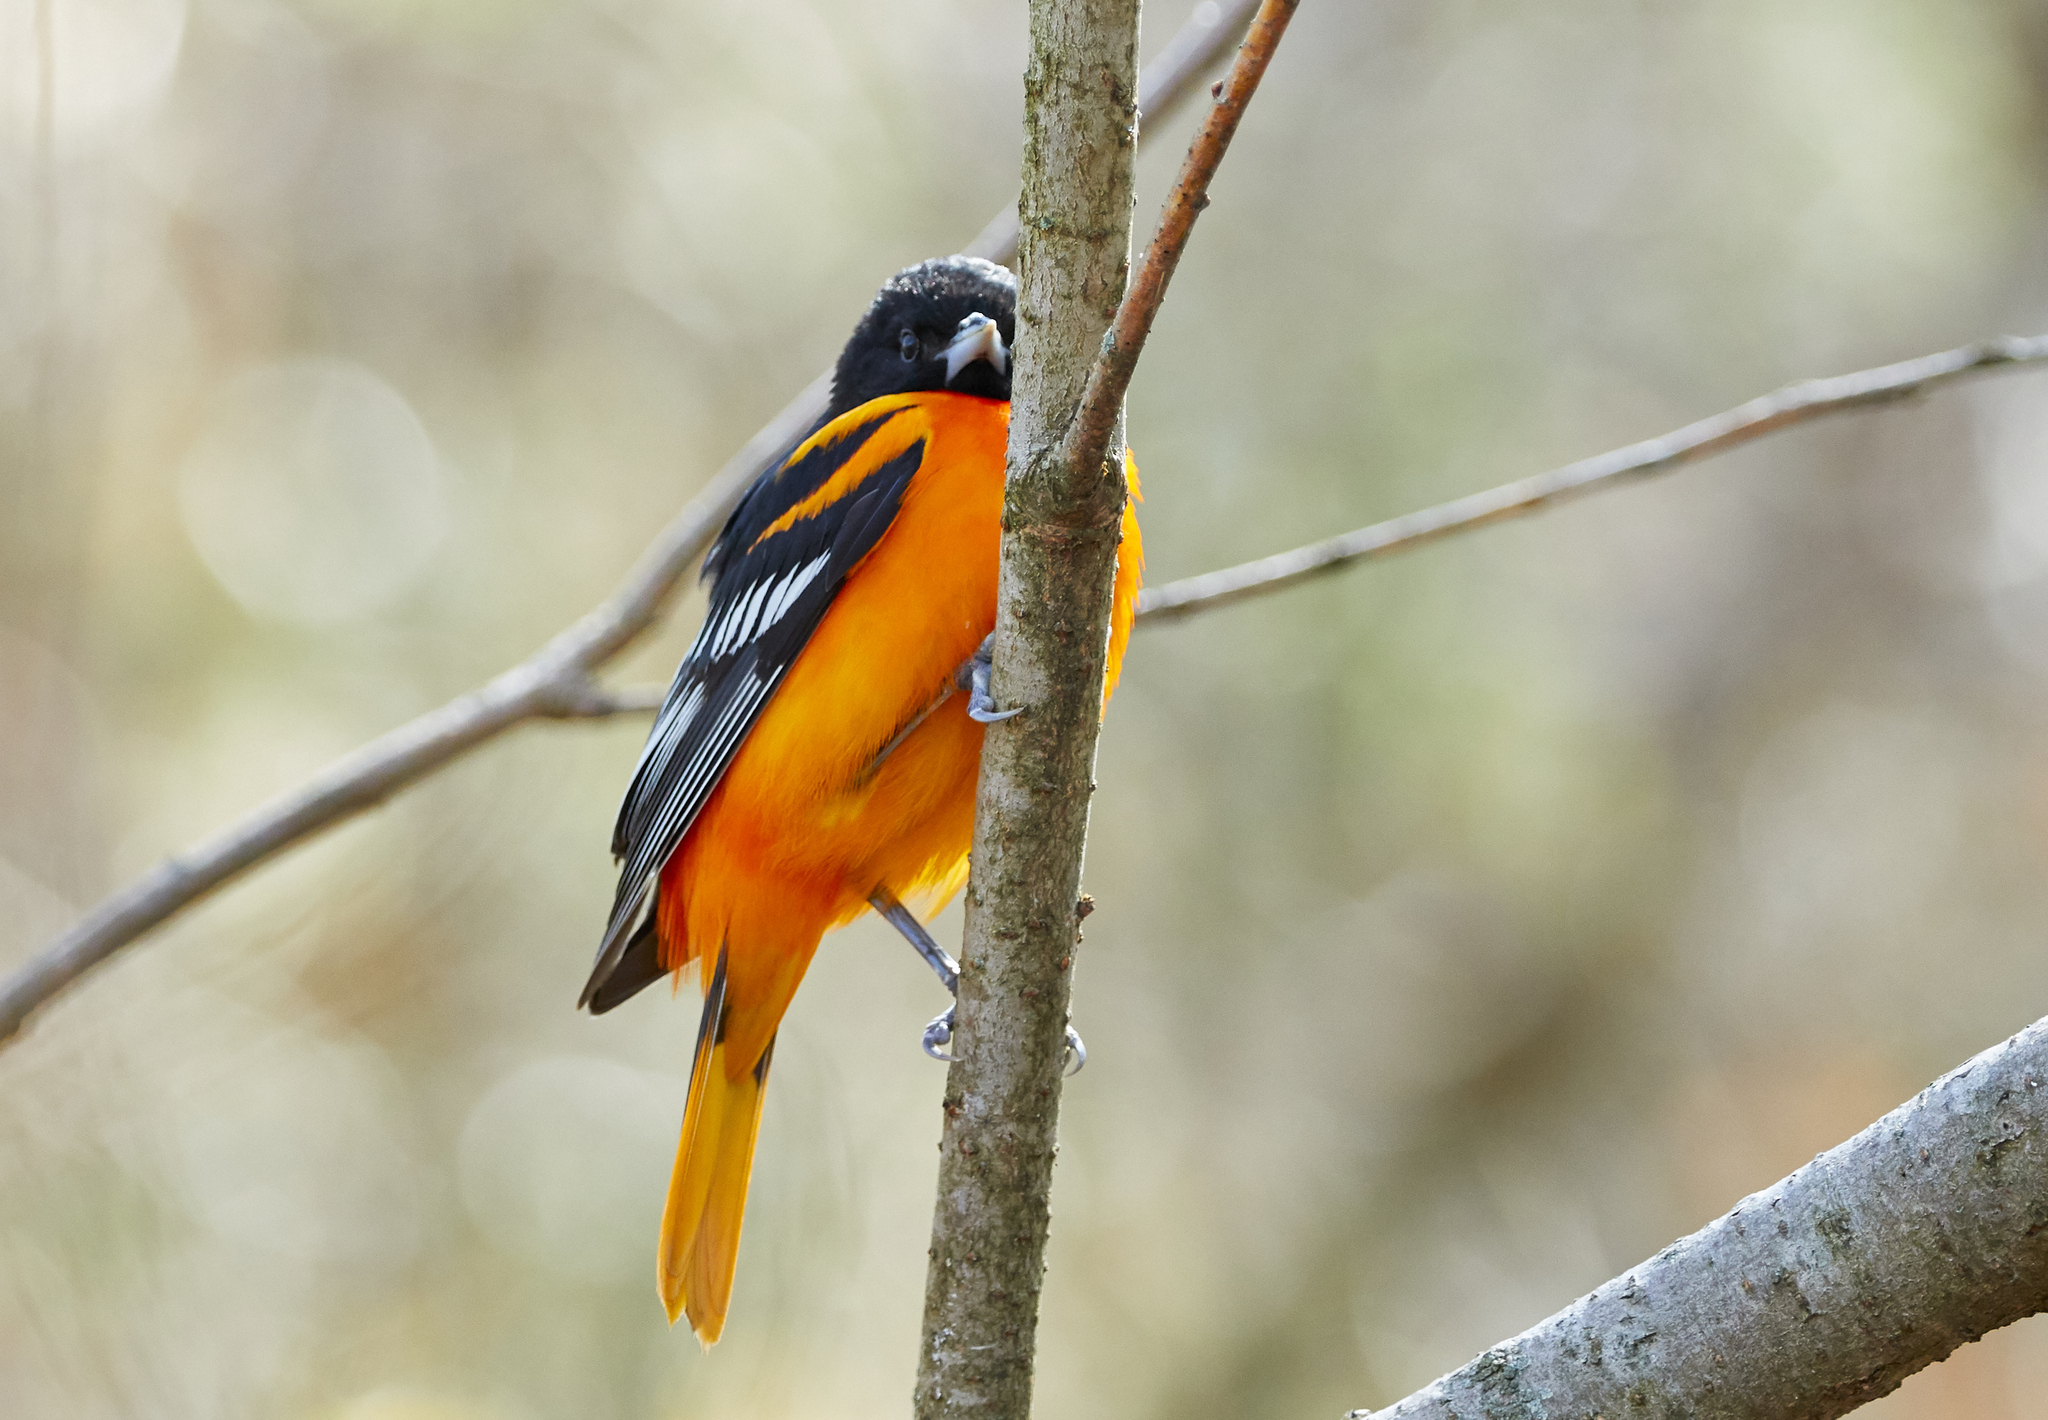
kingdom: Animalia
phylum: Chordata
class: Aves
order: Passeriformes
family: Icteridae
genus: Icterus
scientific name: Icterus galbula
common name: Baltimore oriole
